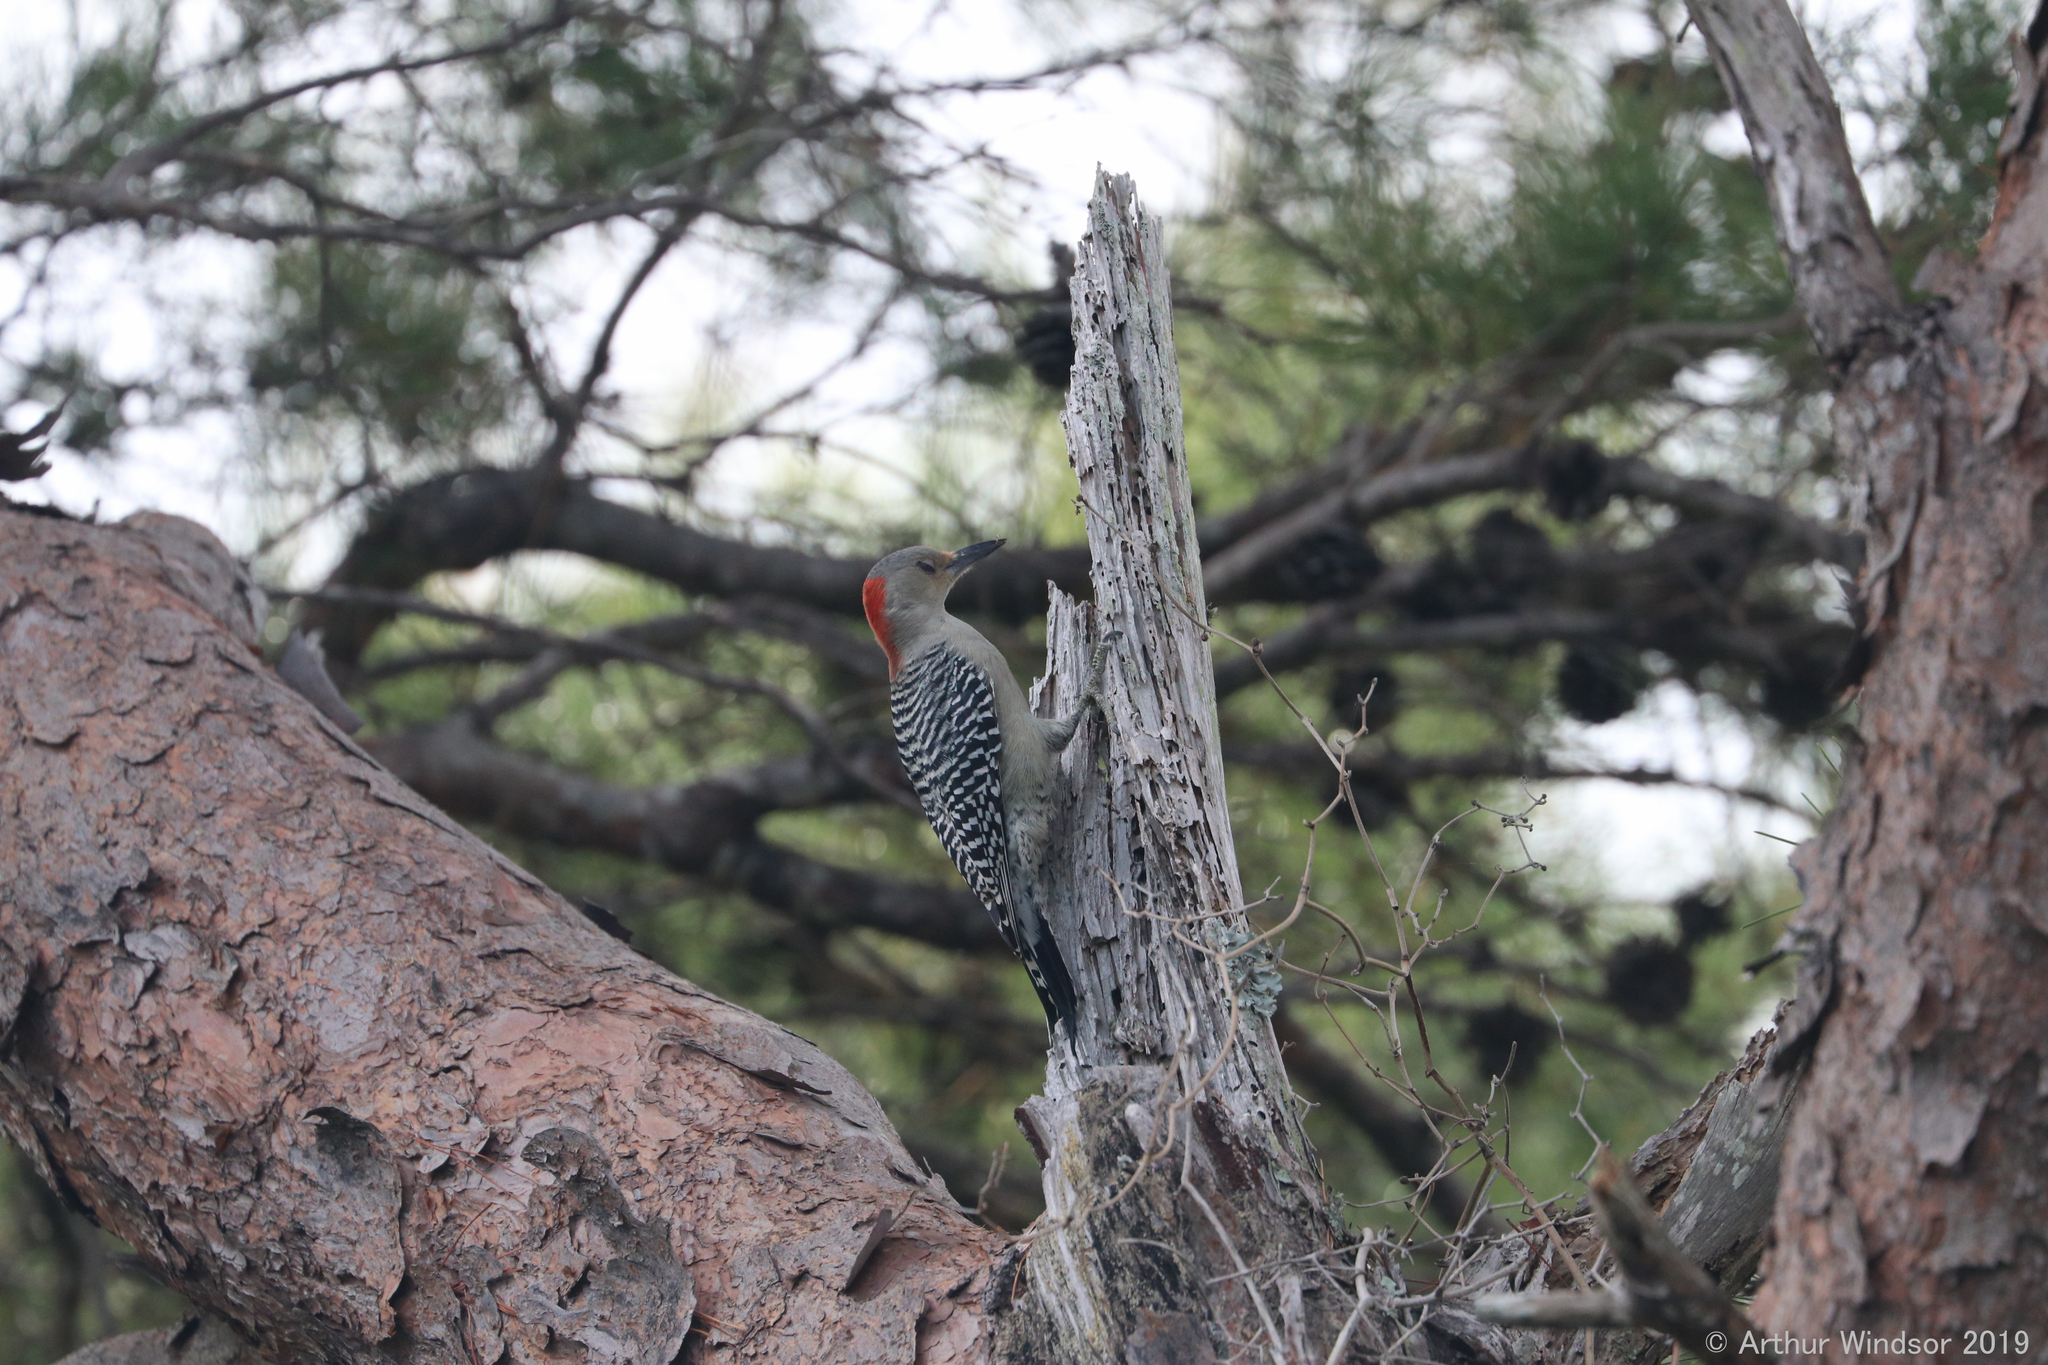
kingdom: Animalia
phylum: Chordata
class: Aves
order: Piciformes
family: Picidae
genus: Melanerpes
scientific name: Melanerpes carolinus
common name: Red-bellied woodpecker
